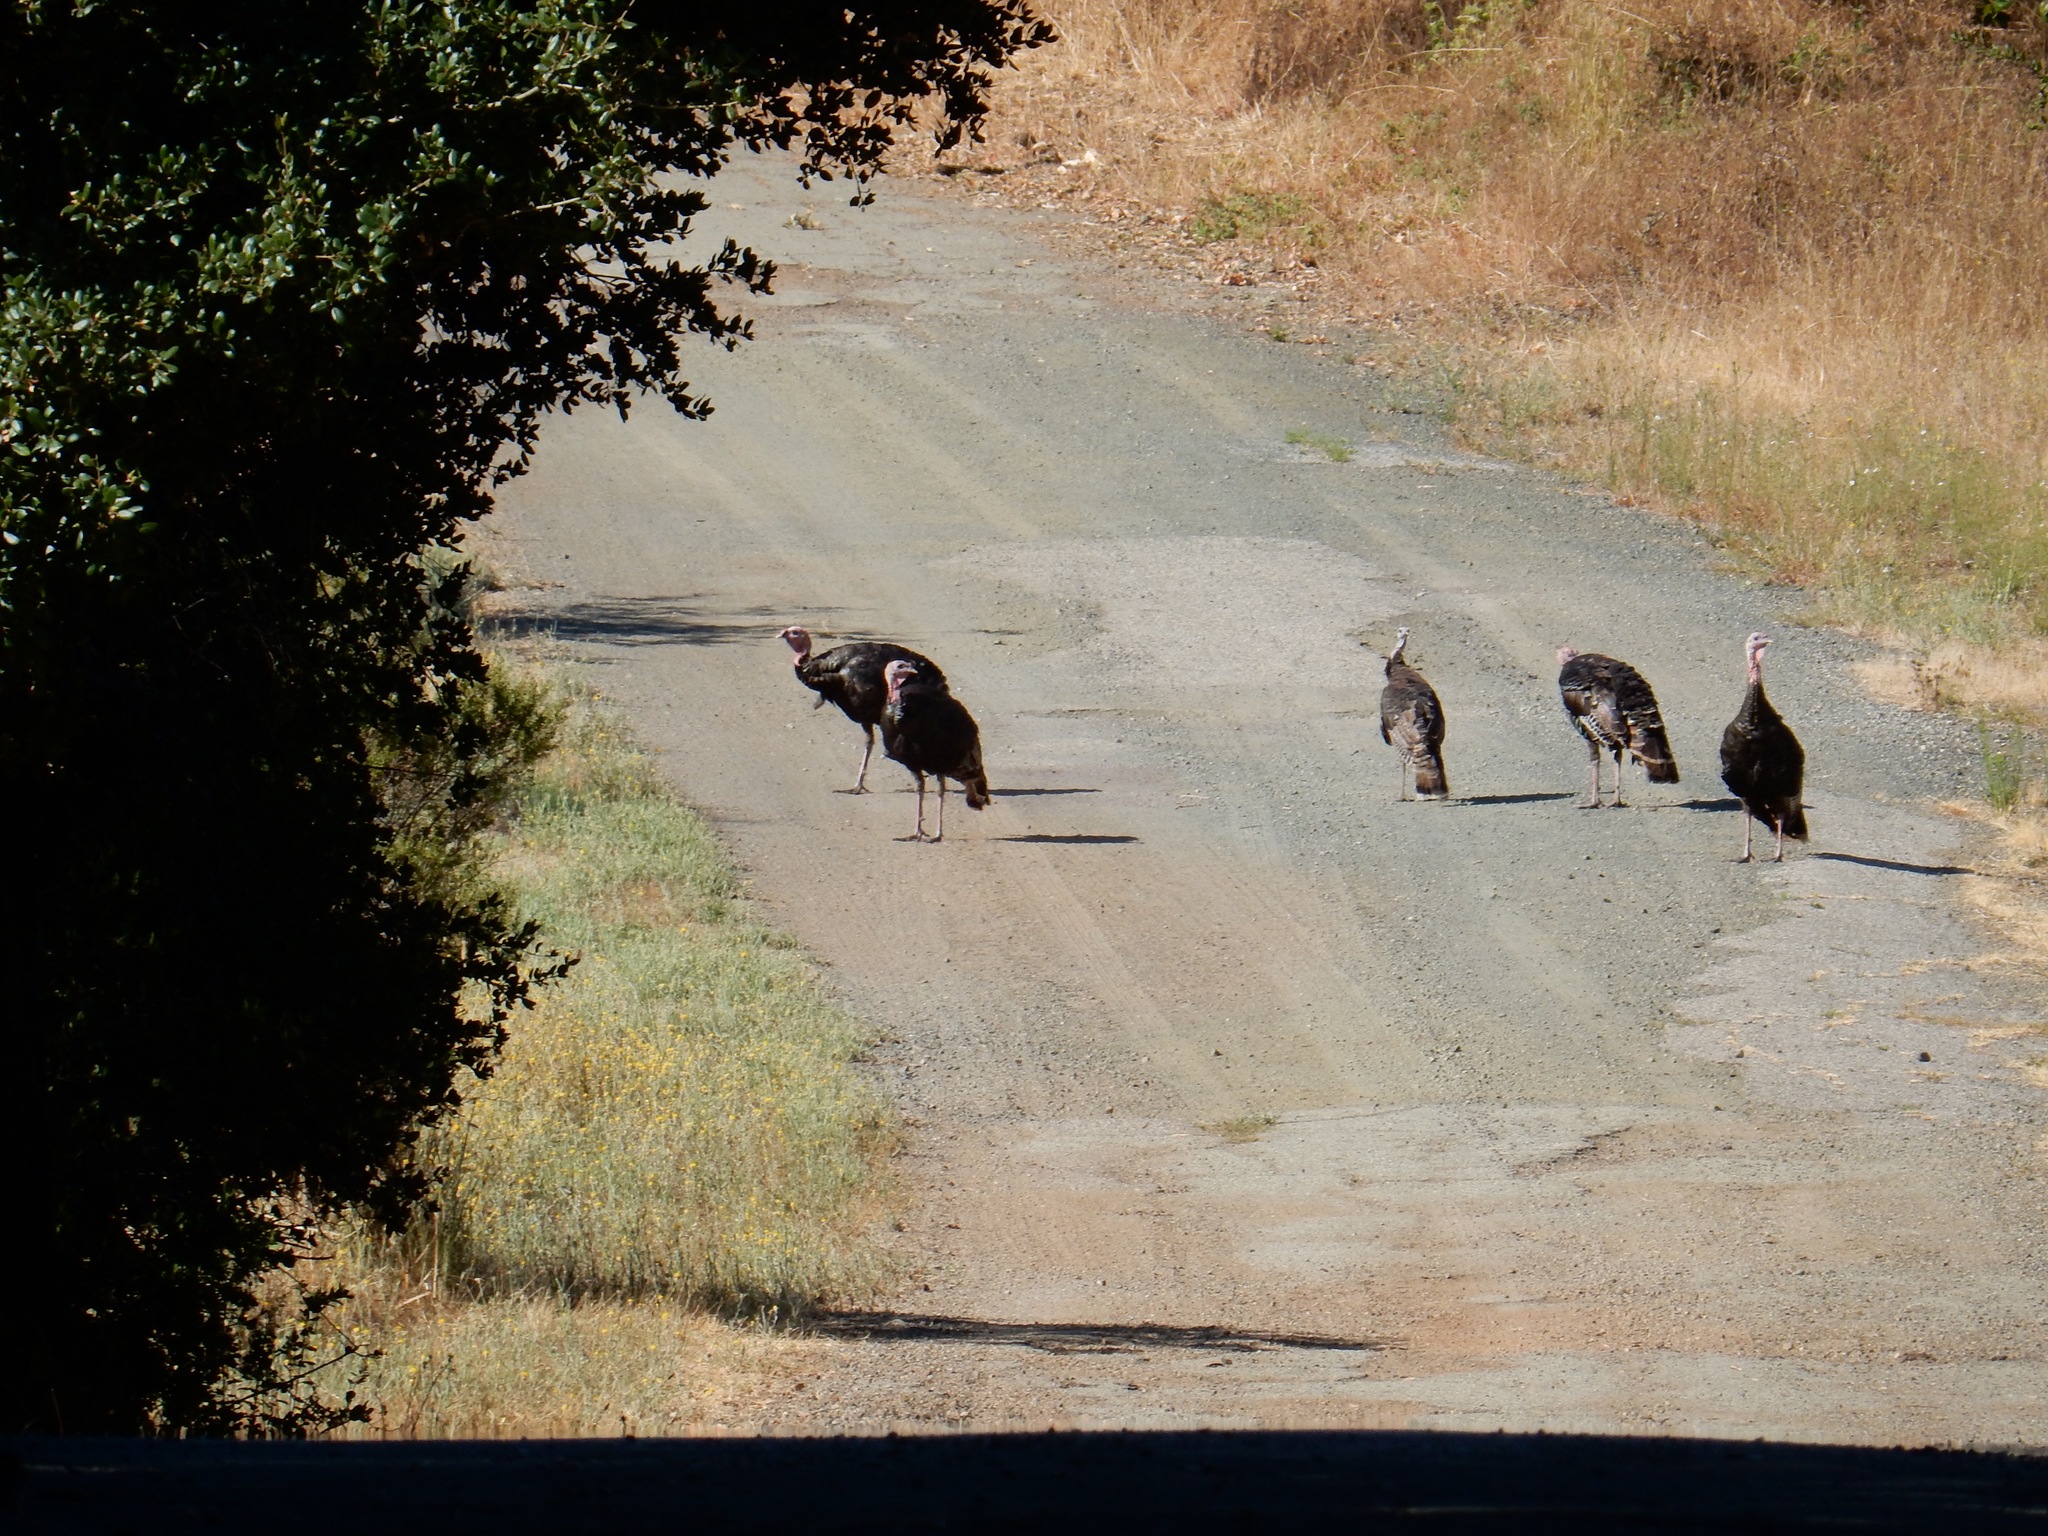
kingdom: Animalia
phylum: Chordata
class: Aves
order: Galliformes
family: Phasianidae
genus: Meleagris
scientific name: Meleagris gallopavo
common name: Wild turkey
